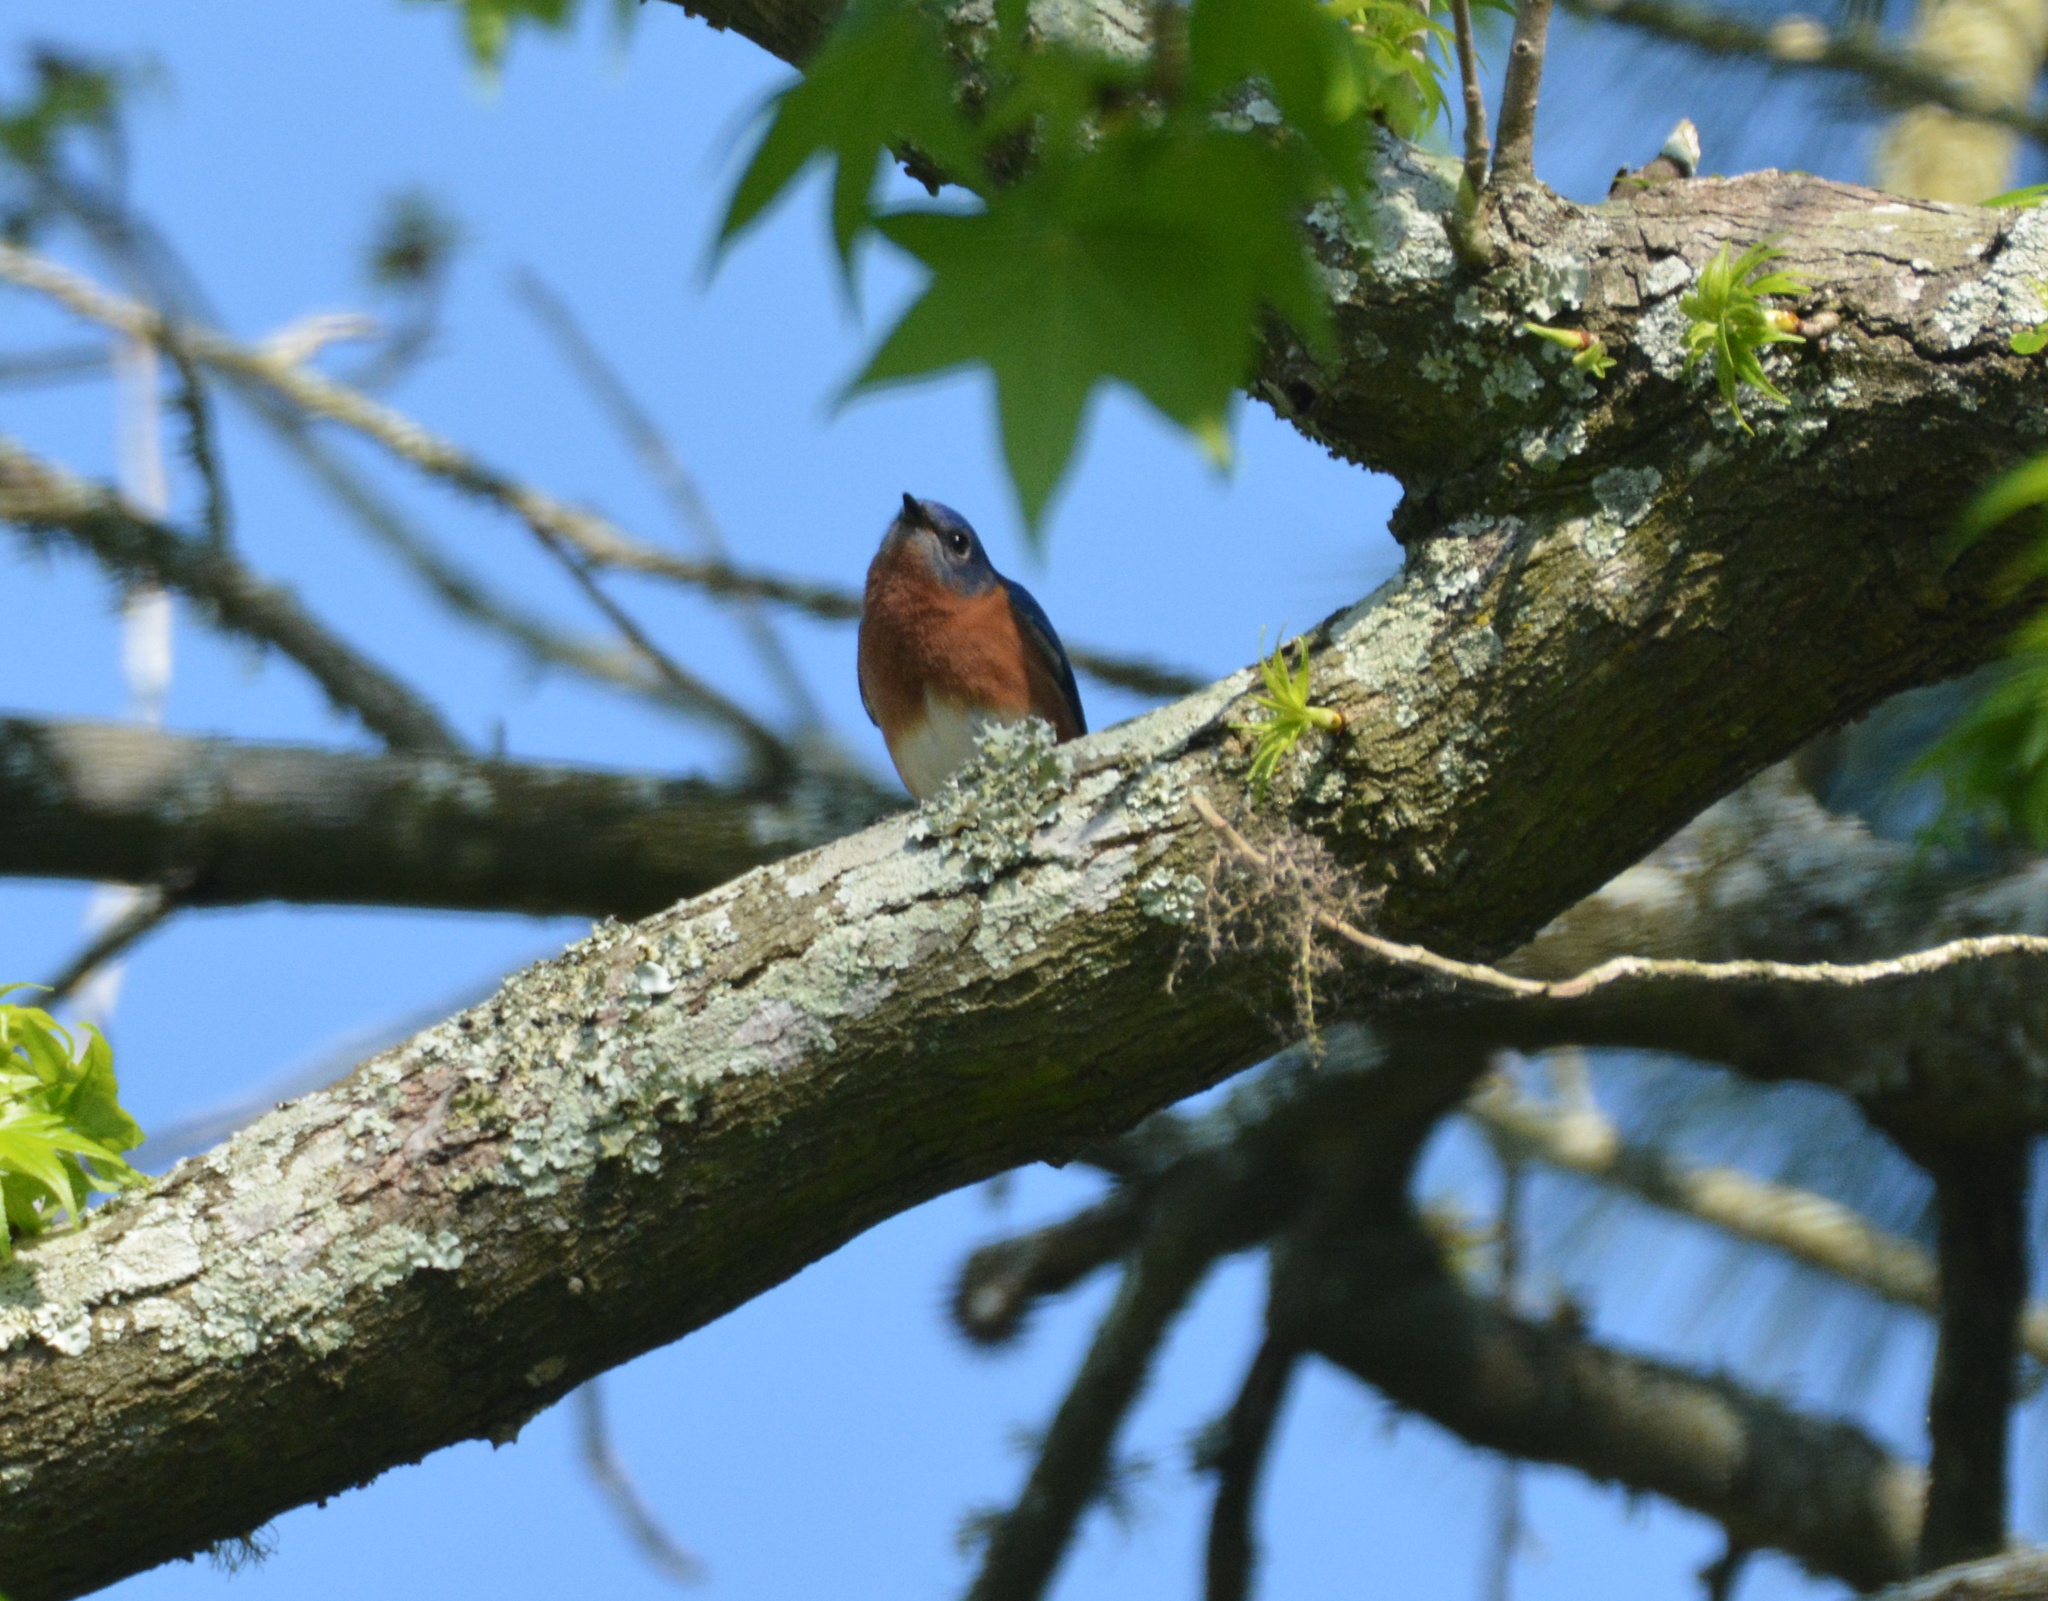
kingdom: Animalia
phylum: Chordata
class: Aves
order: Passeriformes
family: Turdidae
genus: Sialia
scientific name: Sialia sialis
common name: Eastern bluebird
